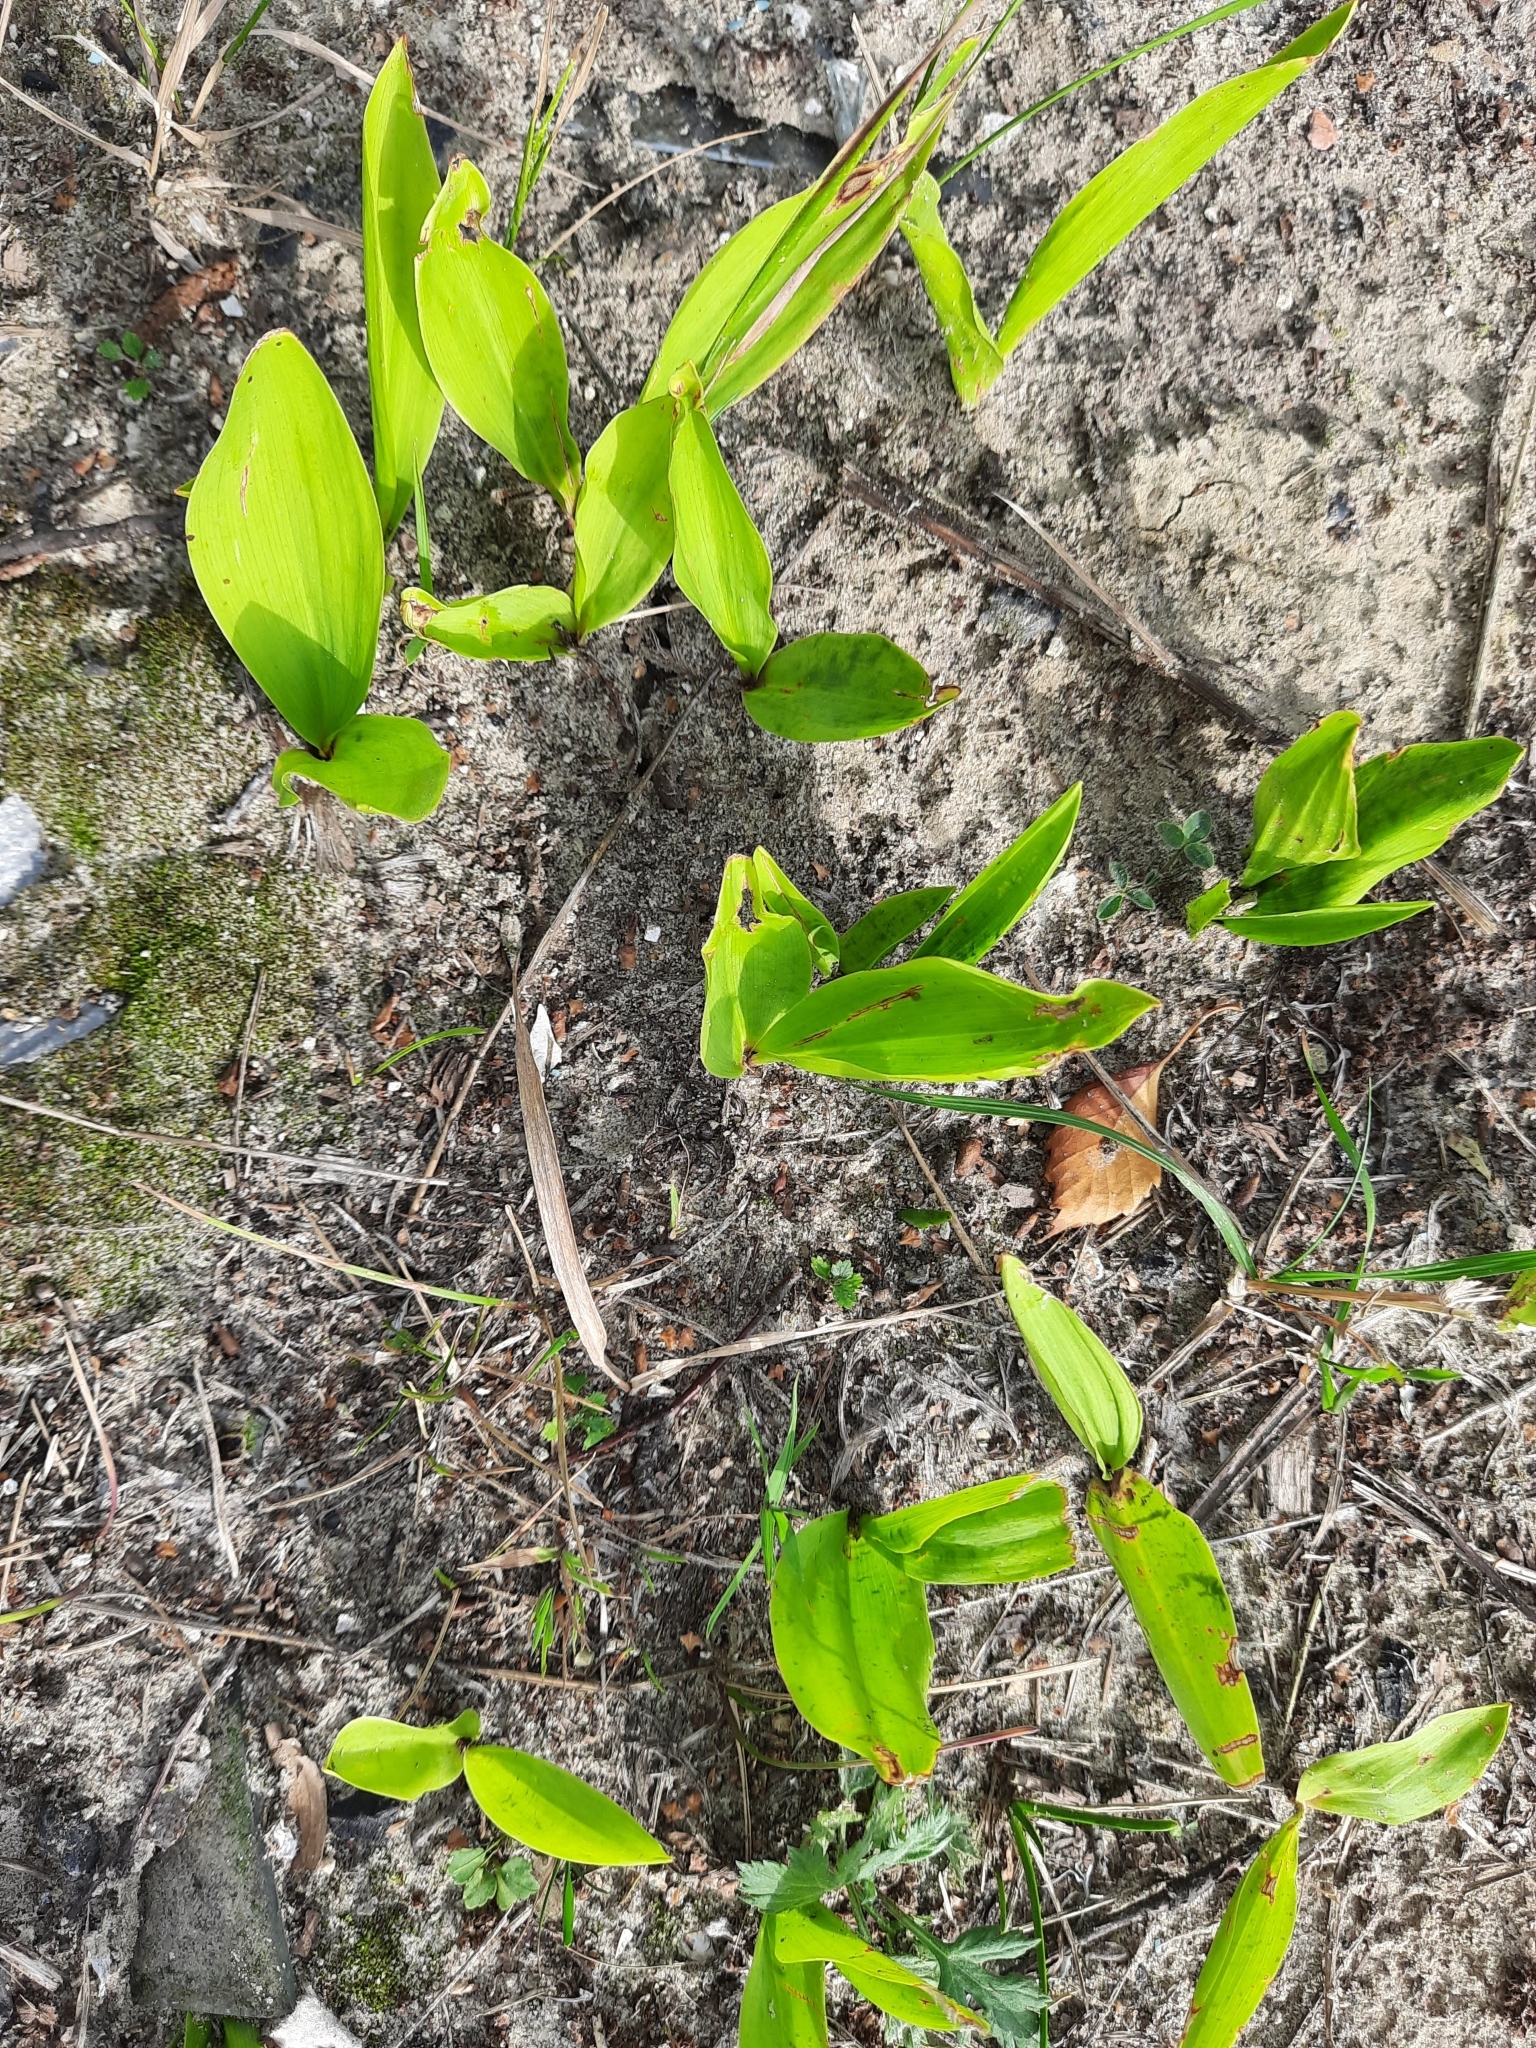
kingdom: Plantae
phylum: Tracheophyta
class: Liliopsida
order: Asparagales
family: Asparagaceae
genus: Convallaria
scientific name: Convallaria majalis
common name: Lily-of-the-valley
